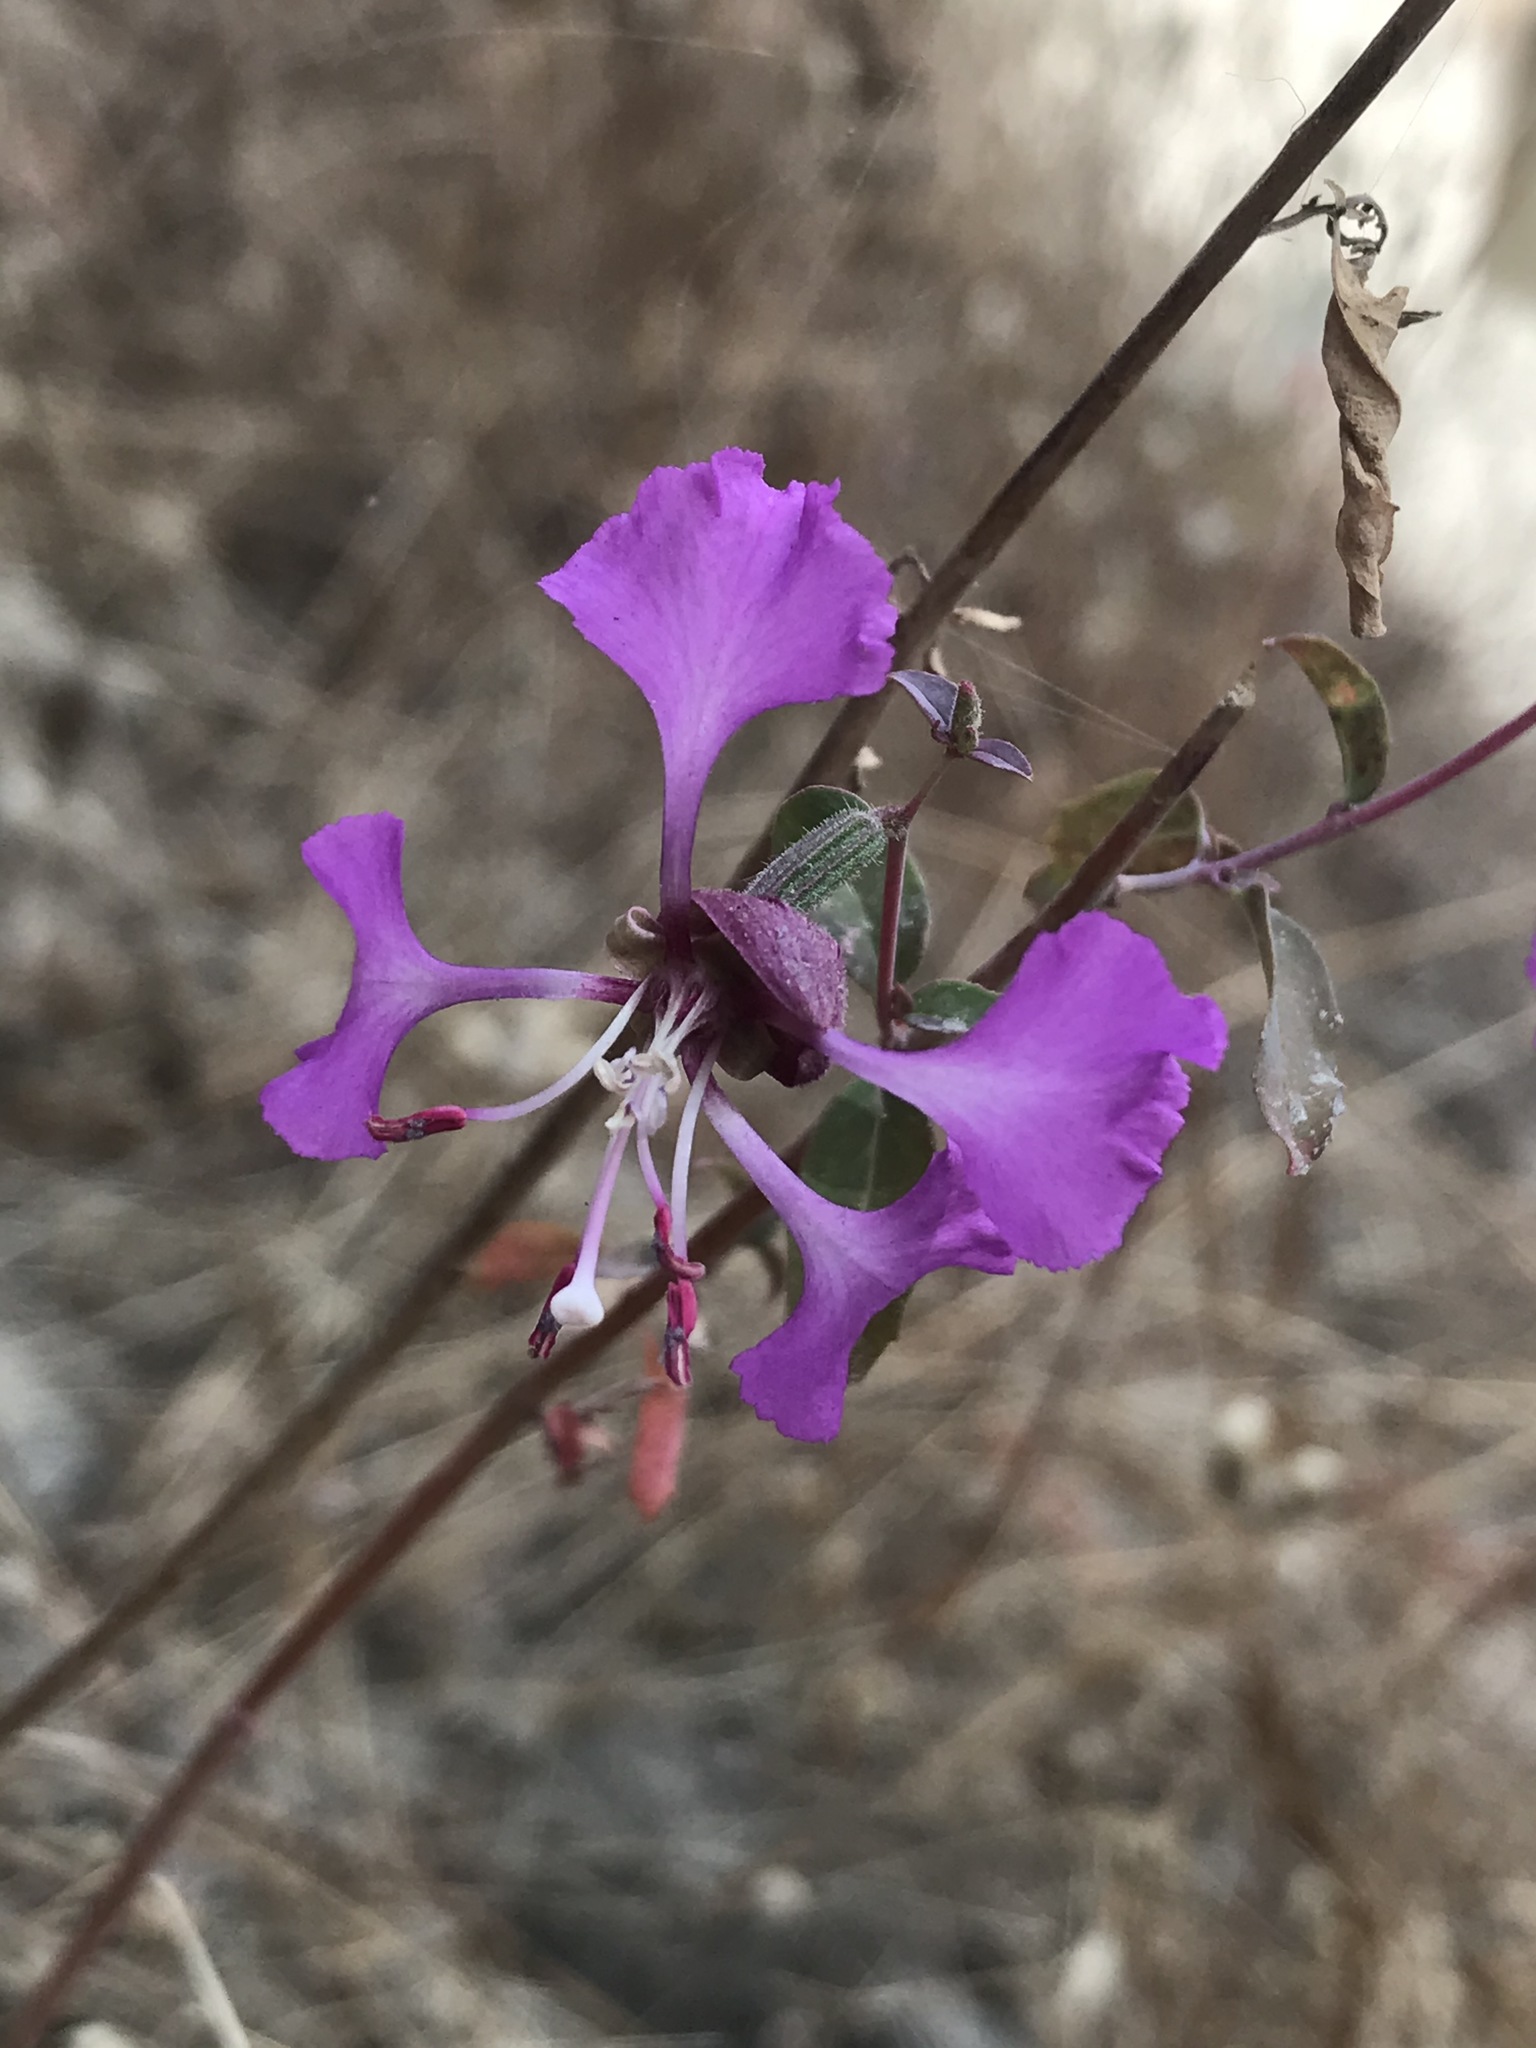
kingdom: Plantae
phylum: Tracheophyta
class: Magnoliopsida
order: Myrtales
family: Onagraceae
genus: Clarkia
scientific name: Clarkia unguiculata
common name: Clarkia
